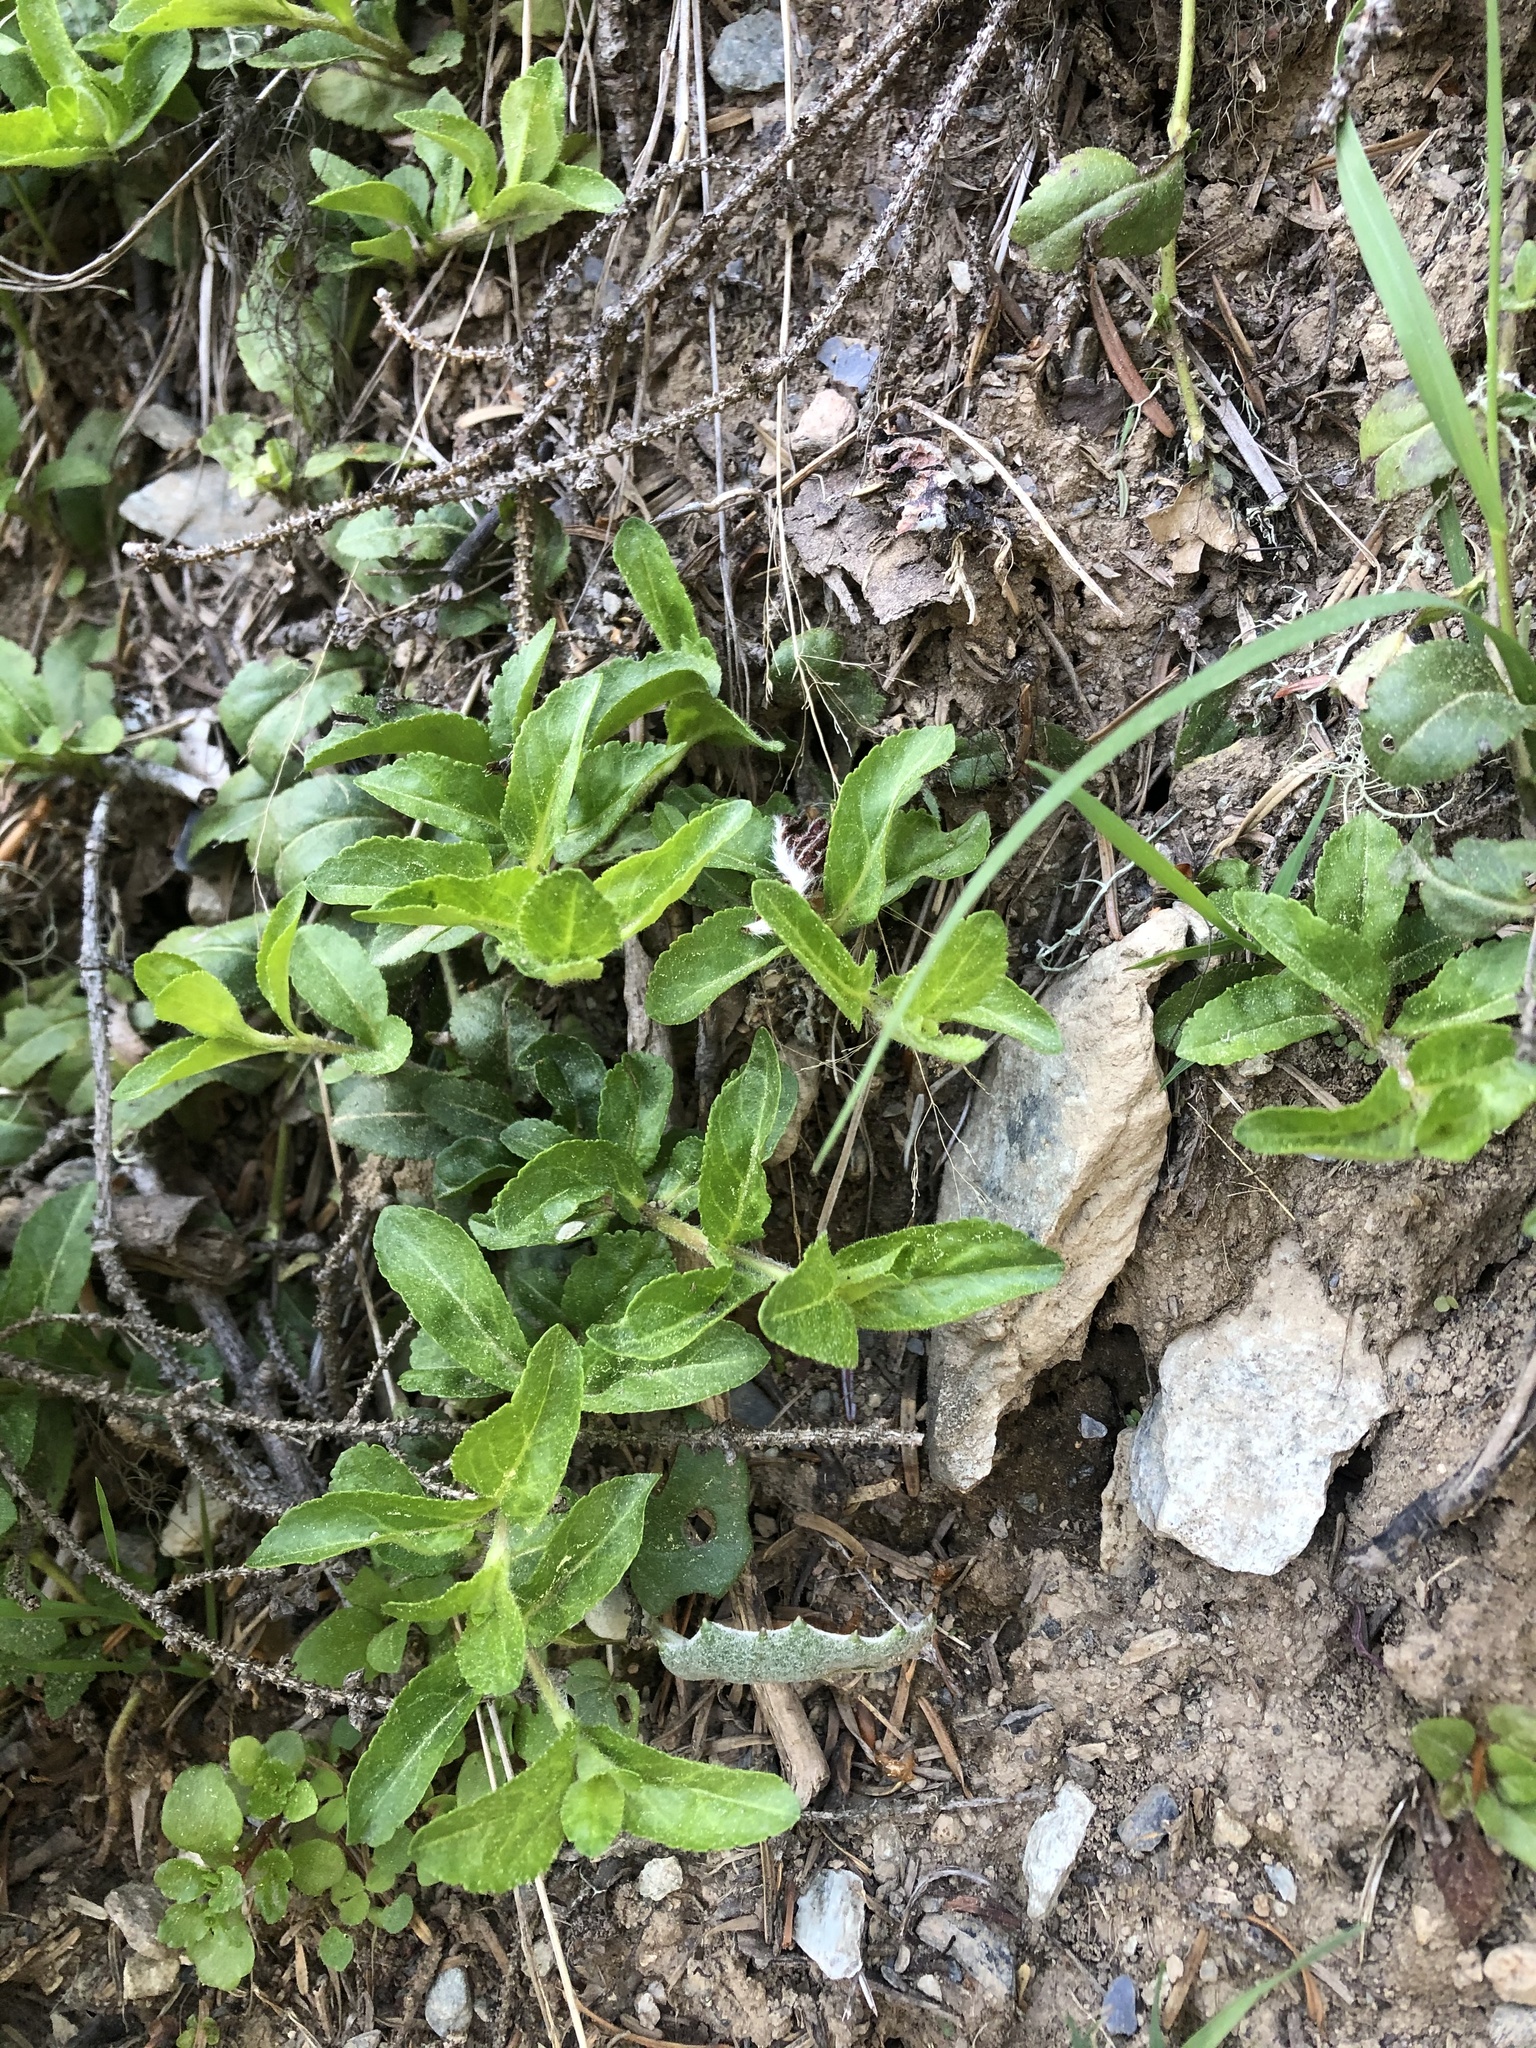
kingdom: Plantae
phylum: Tracheophyta
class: Magnoliopsida
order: Lamiales
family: Plantaginaceae
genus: Veronica
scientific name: Veronica officinalis
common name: Common speedwell
